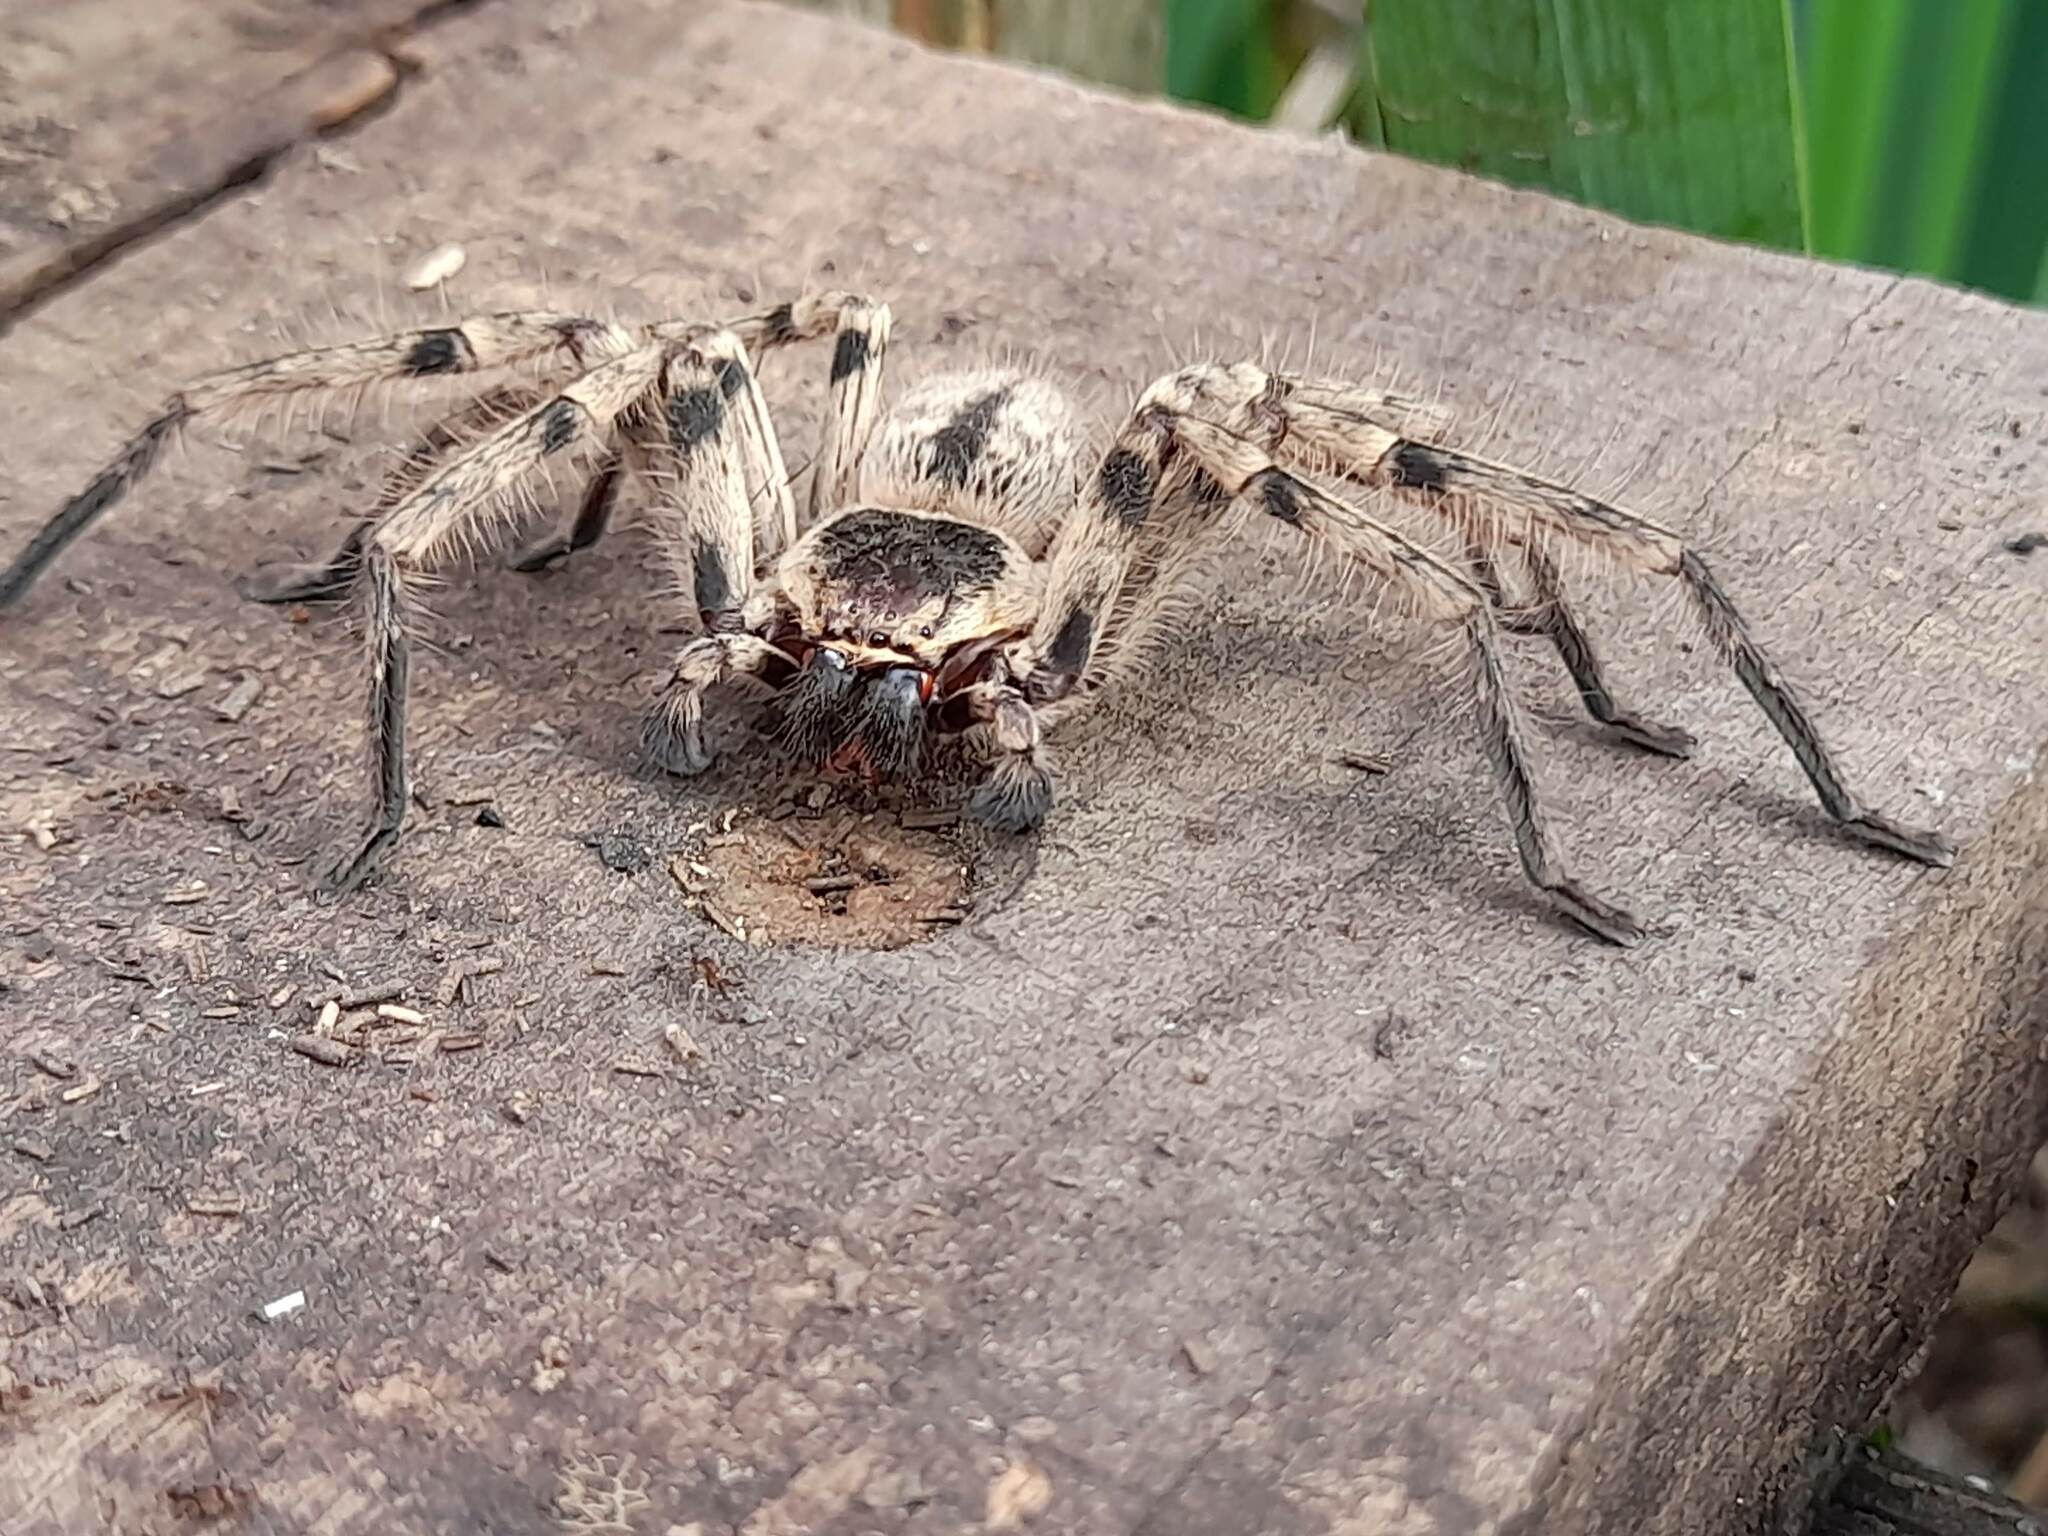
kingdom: Animalia
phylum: Arthropoda
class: Arachnida
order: Araneae
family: Sparassidae
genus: Polybetes
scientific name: Polybetes pythagoricus
